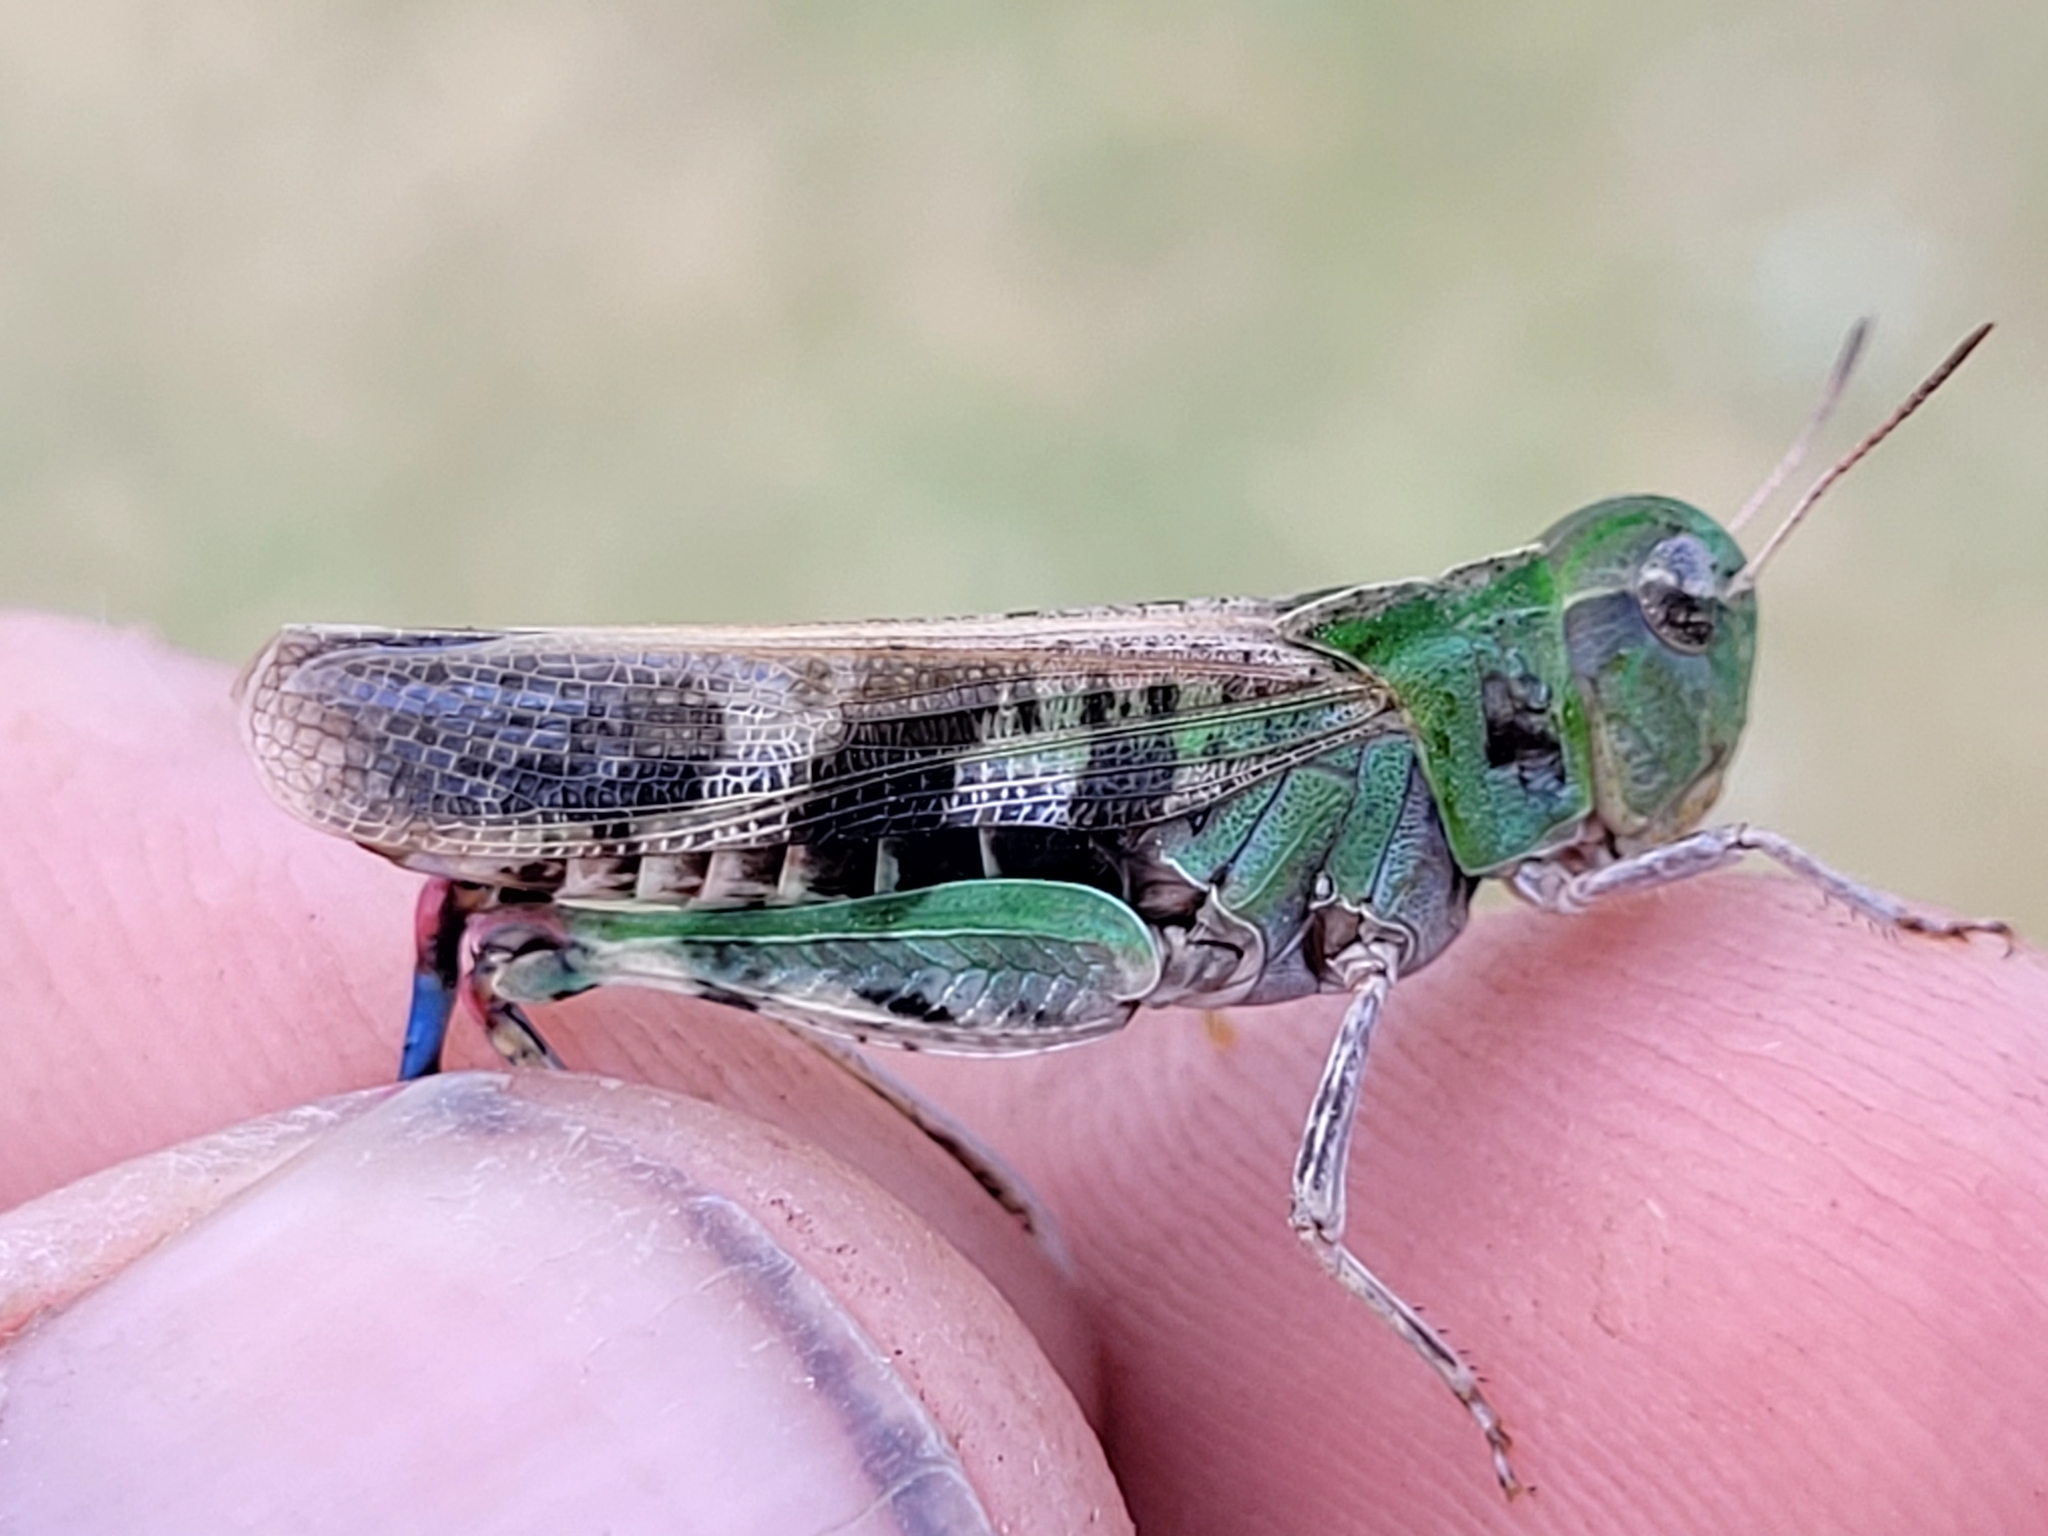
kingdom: Animalia
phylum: Arthropoda
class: Insecta
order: Orthoptera
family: Acrididae
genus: Encoptolophus
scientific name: Encoptolophus costalis
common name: Dusky grasshopper
